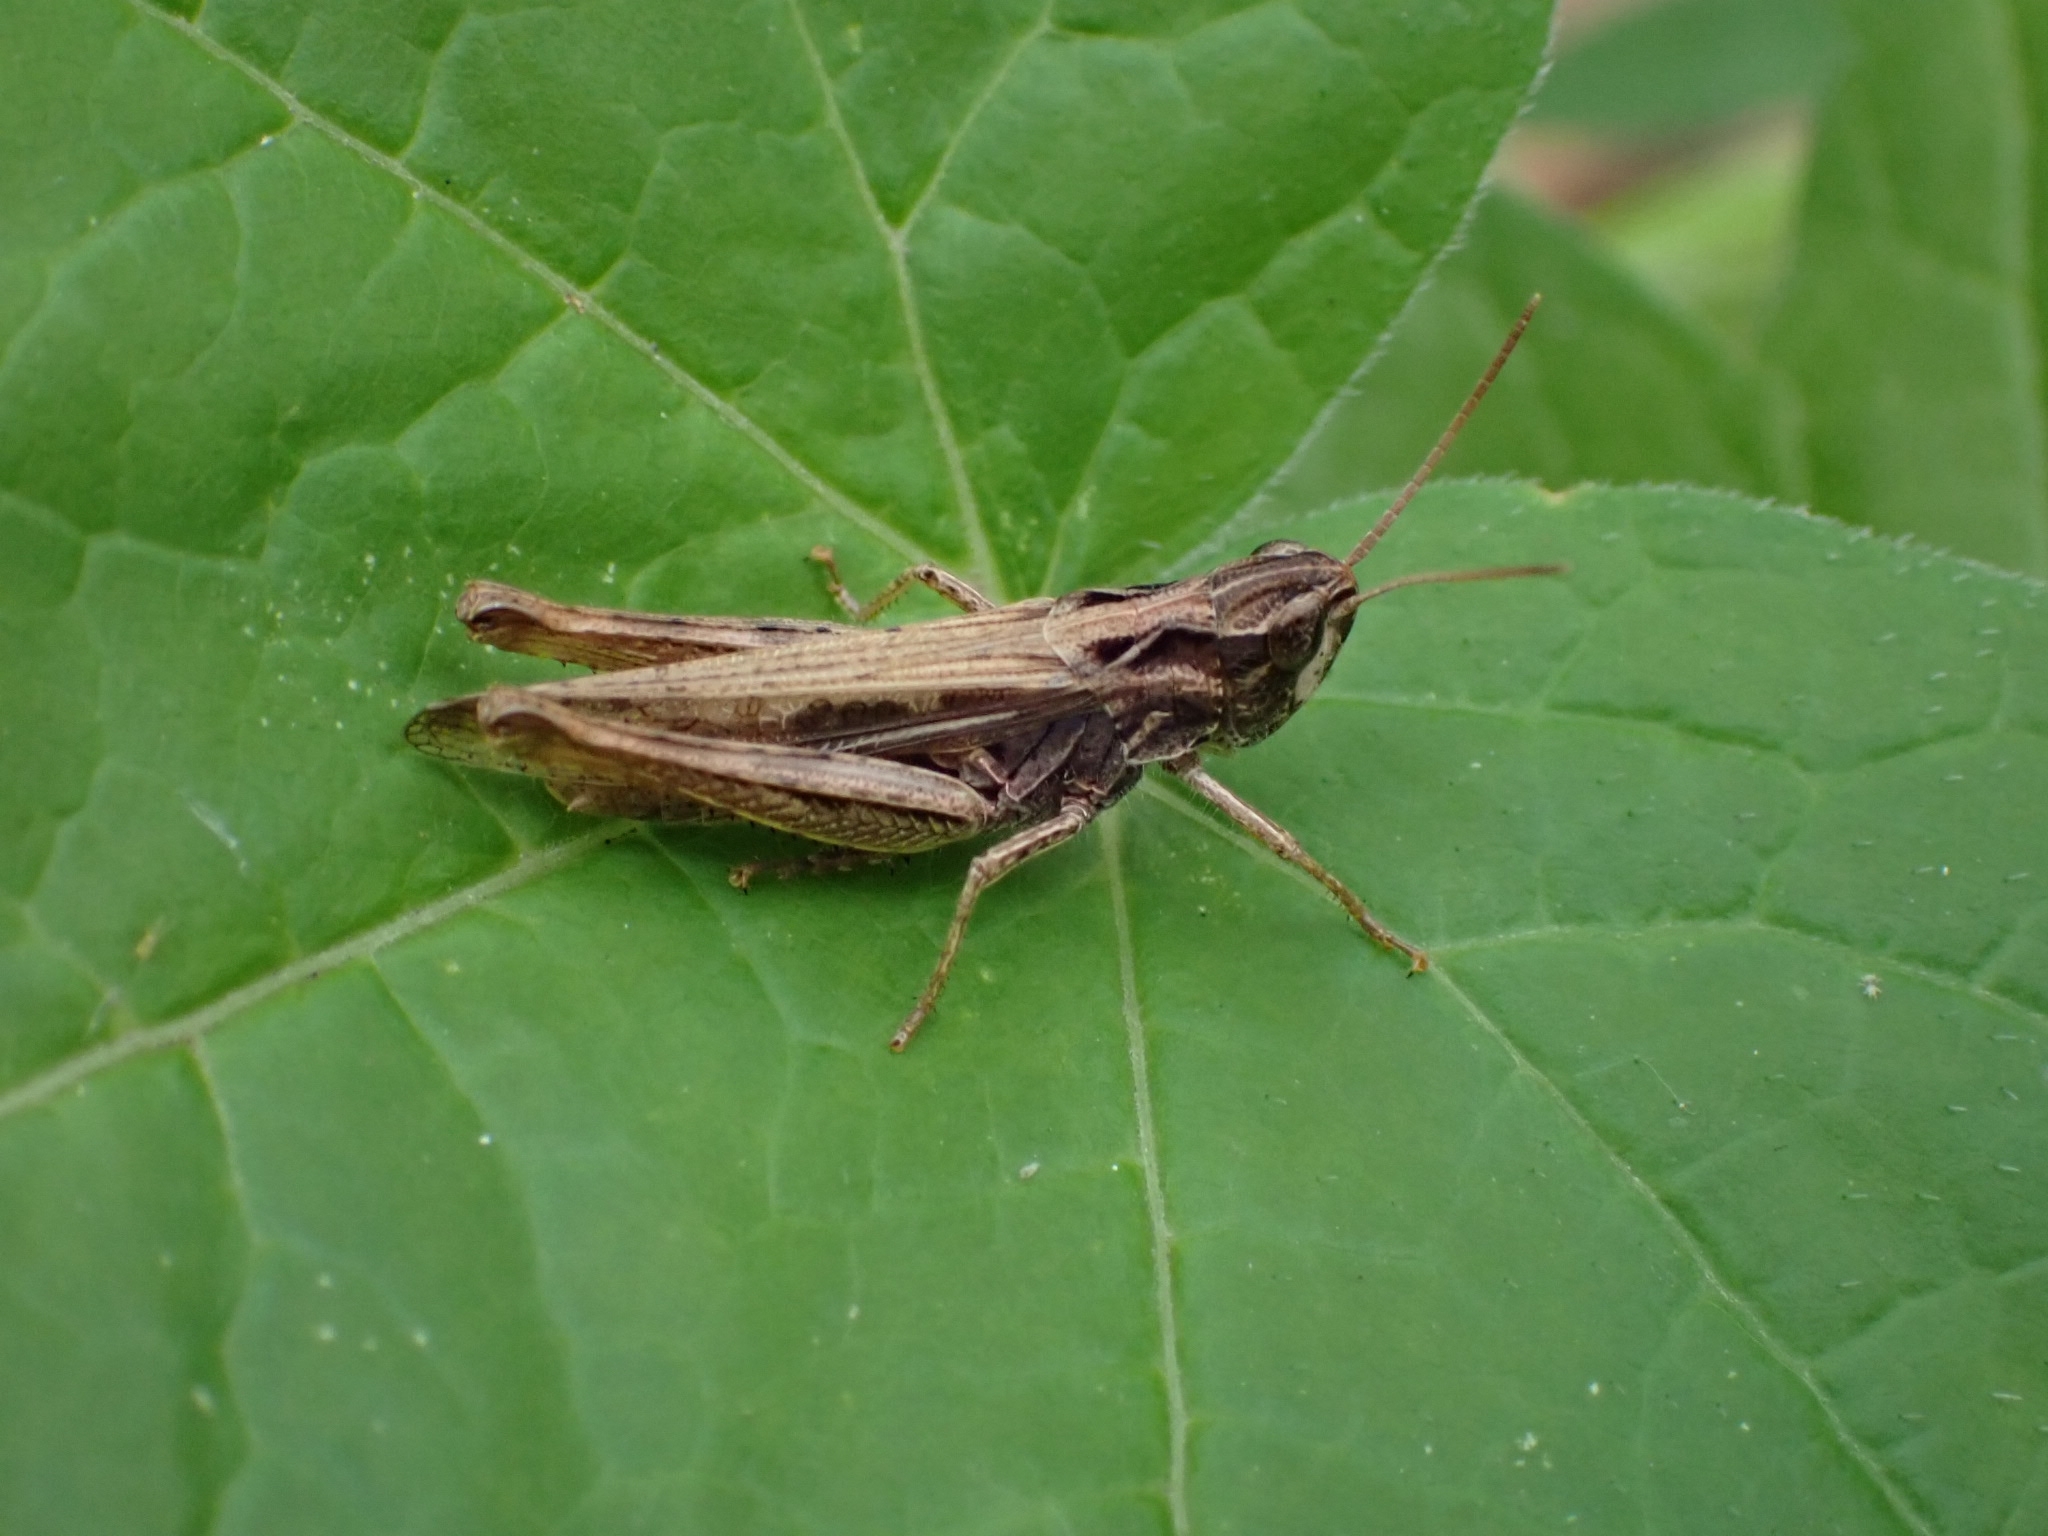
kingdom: Animalia
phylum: Arthropoda
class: Insecta
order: Orthoptera
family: Acrididae
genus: Chorthippus
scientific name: Chorthippus apricarius
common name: Upland field grasshopper
